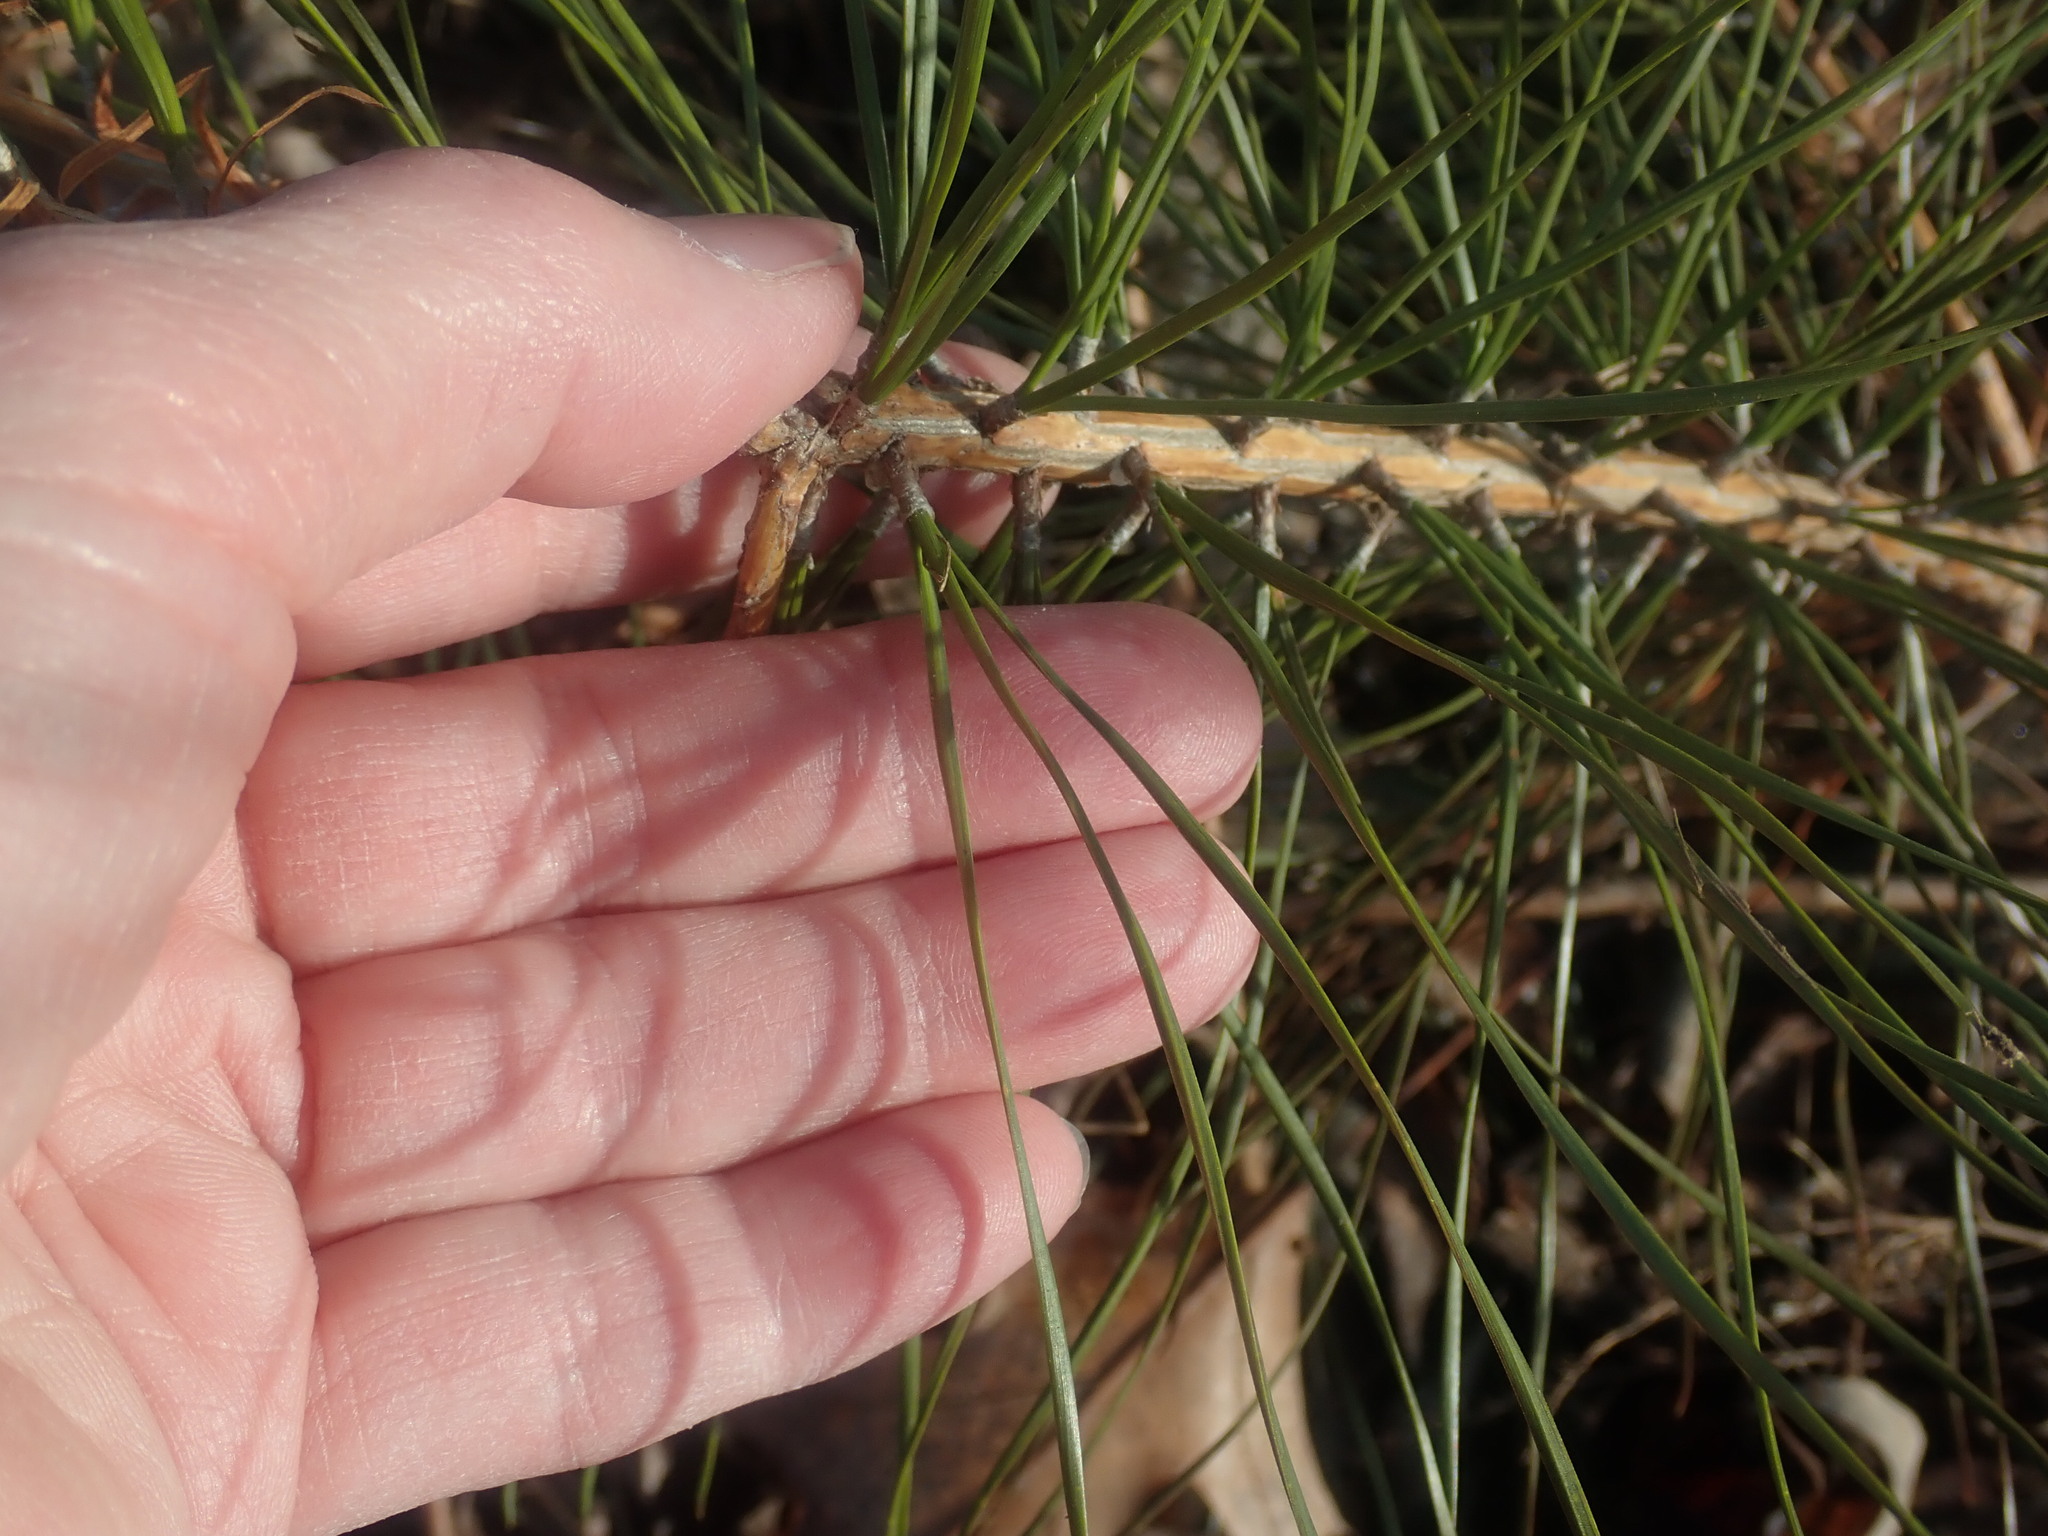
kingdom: Plantae
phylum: Tracheophyta
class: Pinopsida
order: Pinales
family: Pinaceae
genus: Pinus
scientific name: Pinus rigida
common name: Pitch pine
